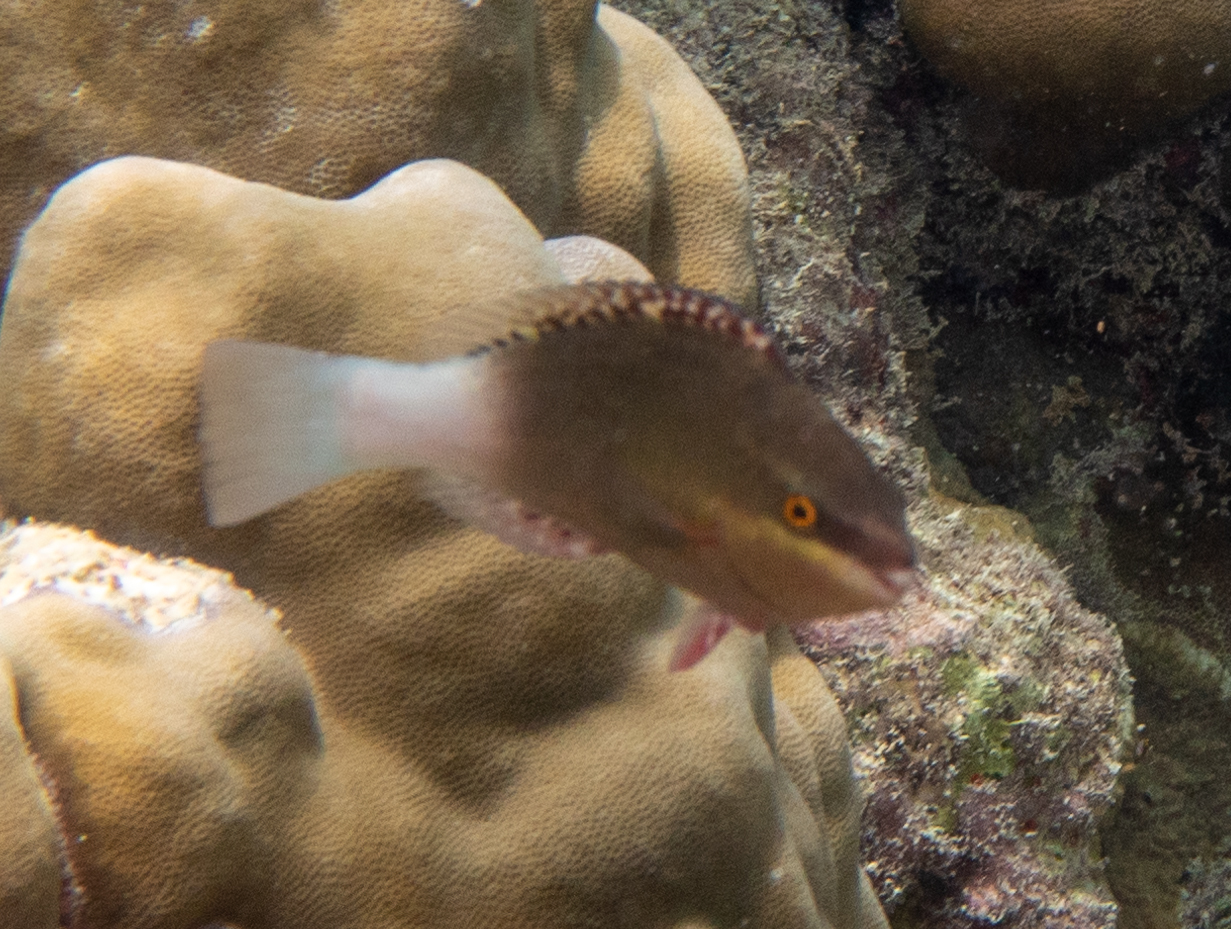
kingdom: Animalia
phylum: Chordata
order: Perciformes
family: Scaridae
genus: Scarus
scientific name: Scarus frenatus
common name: Bridled parrotfish
